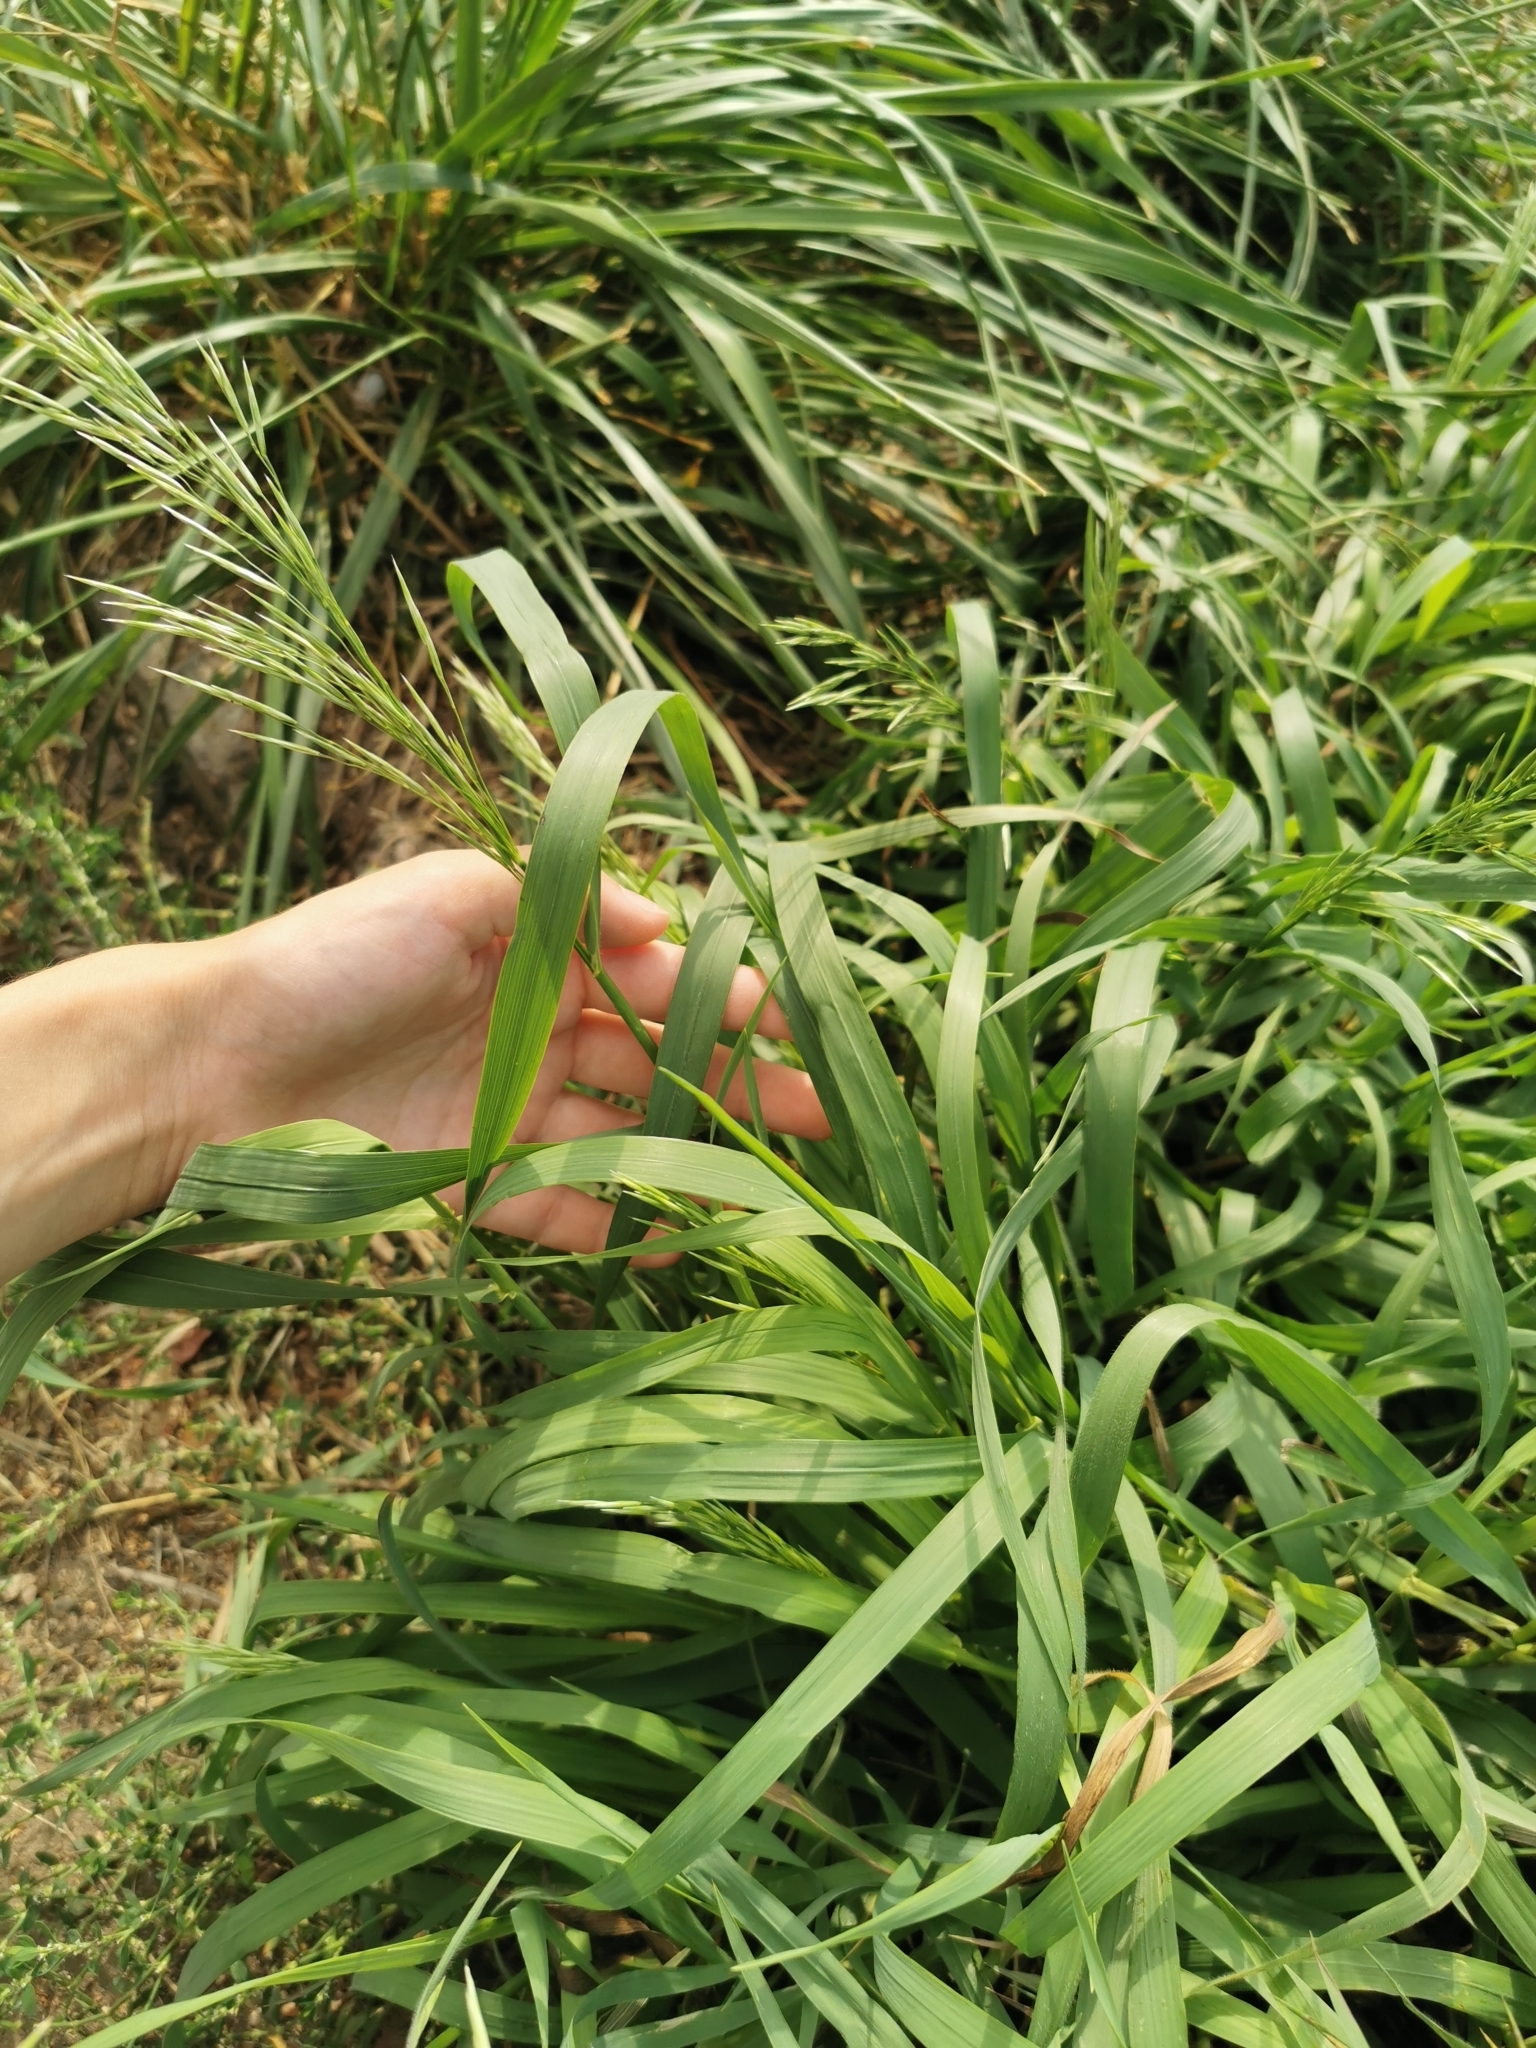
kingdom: Plantae
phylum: Tracheophyta
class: Liliopsida
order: Poales
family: Poaceae
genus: Bromus
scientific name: Bromus inermis
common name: Smooth brome
